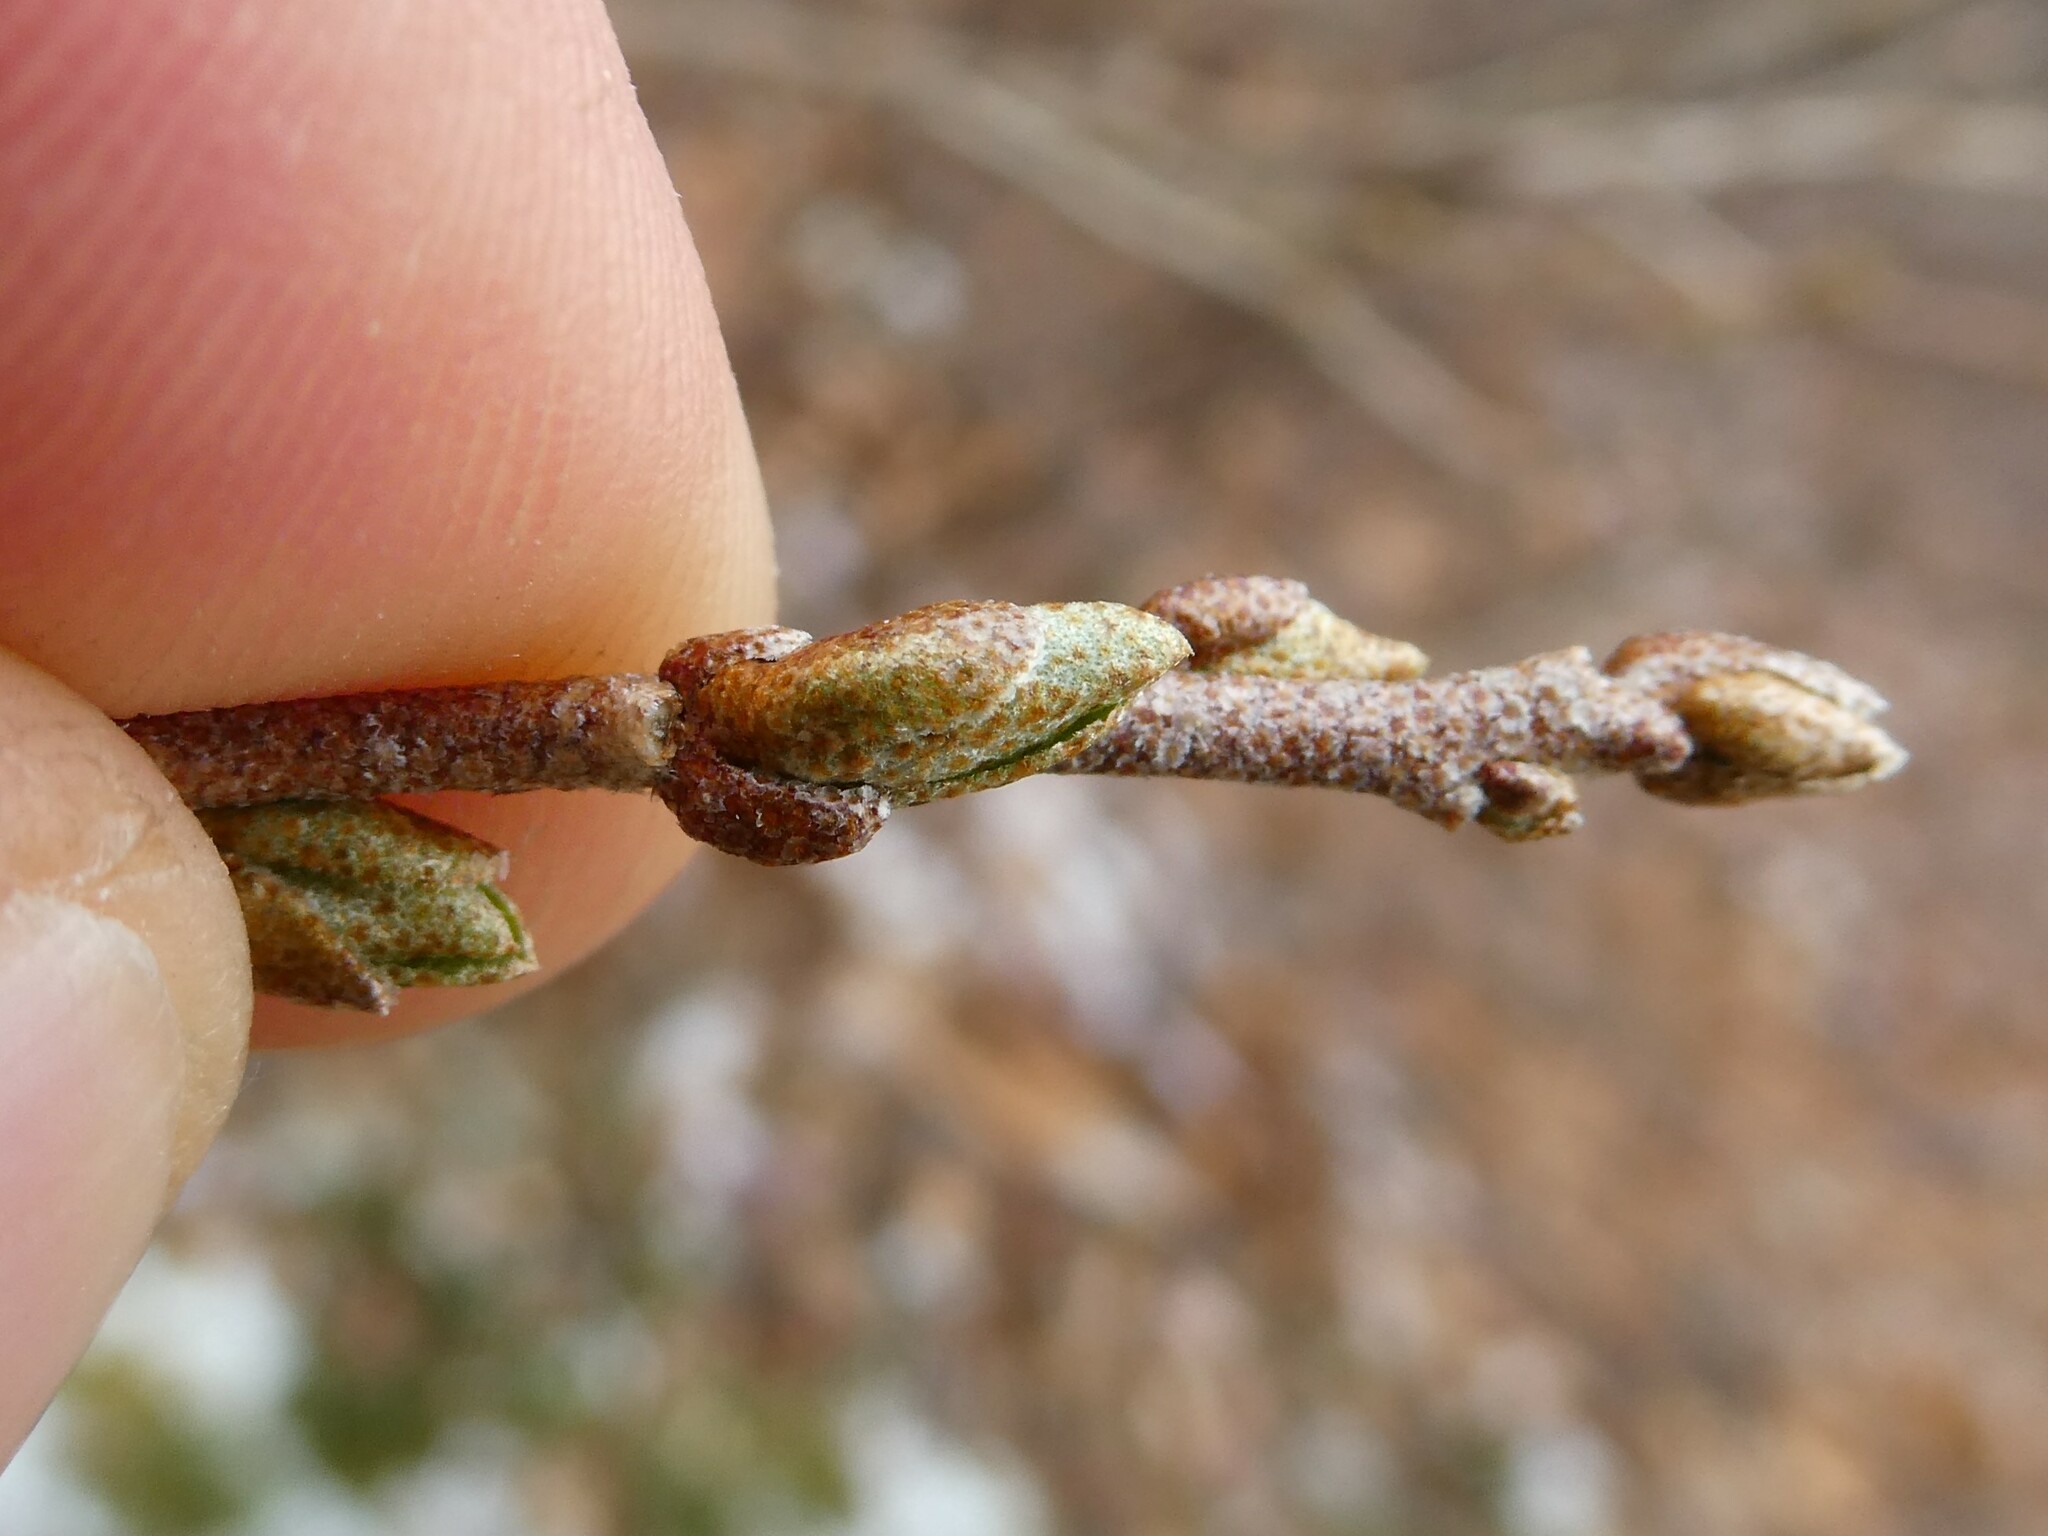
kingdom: Plantae
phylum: Tracheophyta
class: Magnoliopsida
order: Rosales
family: Elaeagnaceae
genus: Elaeagnus
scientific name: Elaeagnus umbellata
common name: Autumn olive
